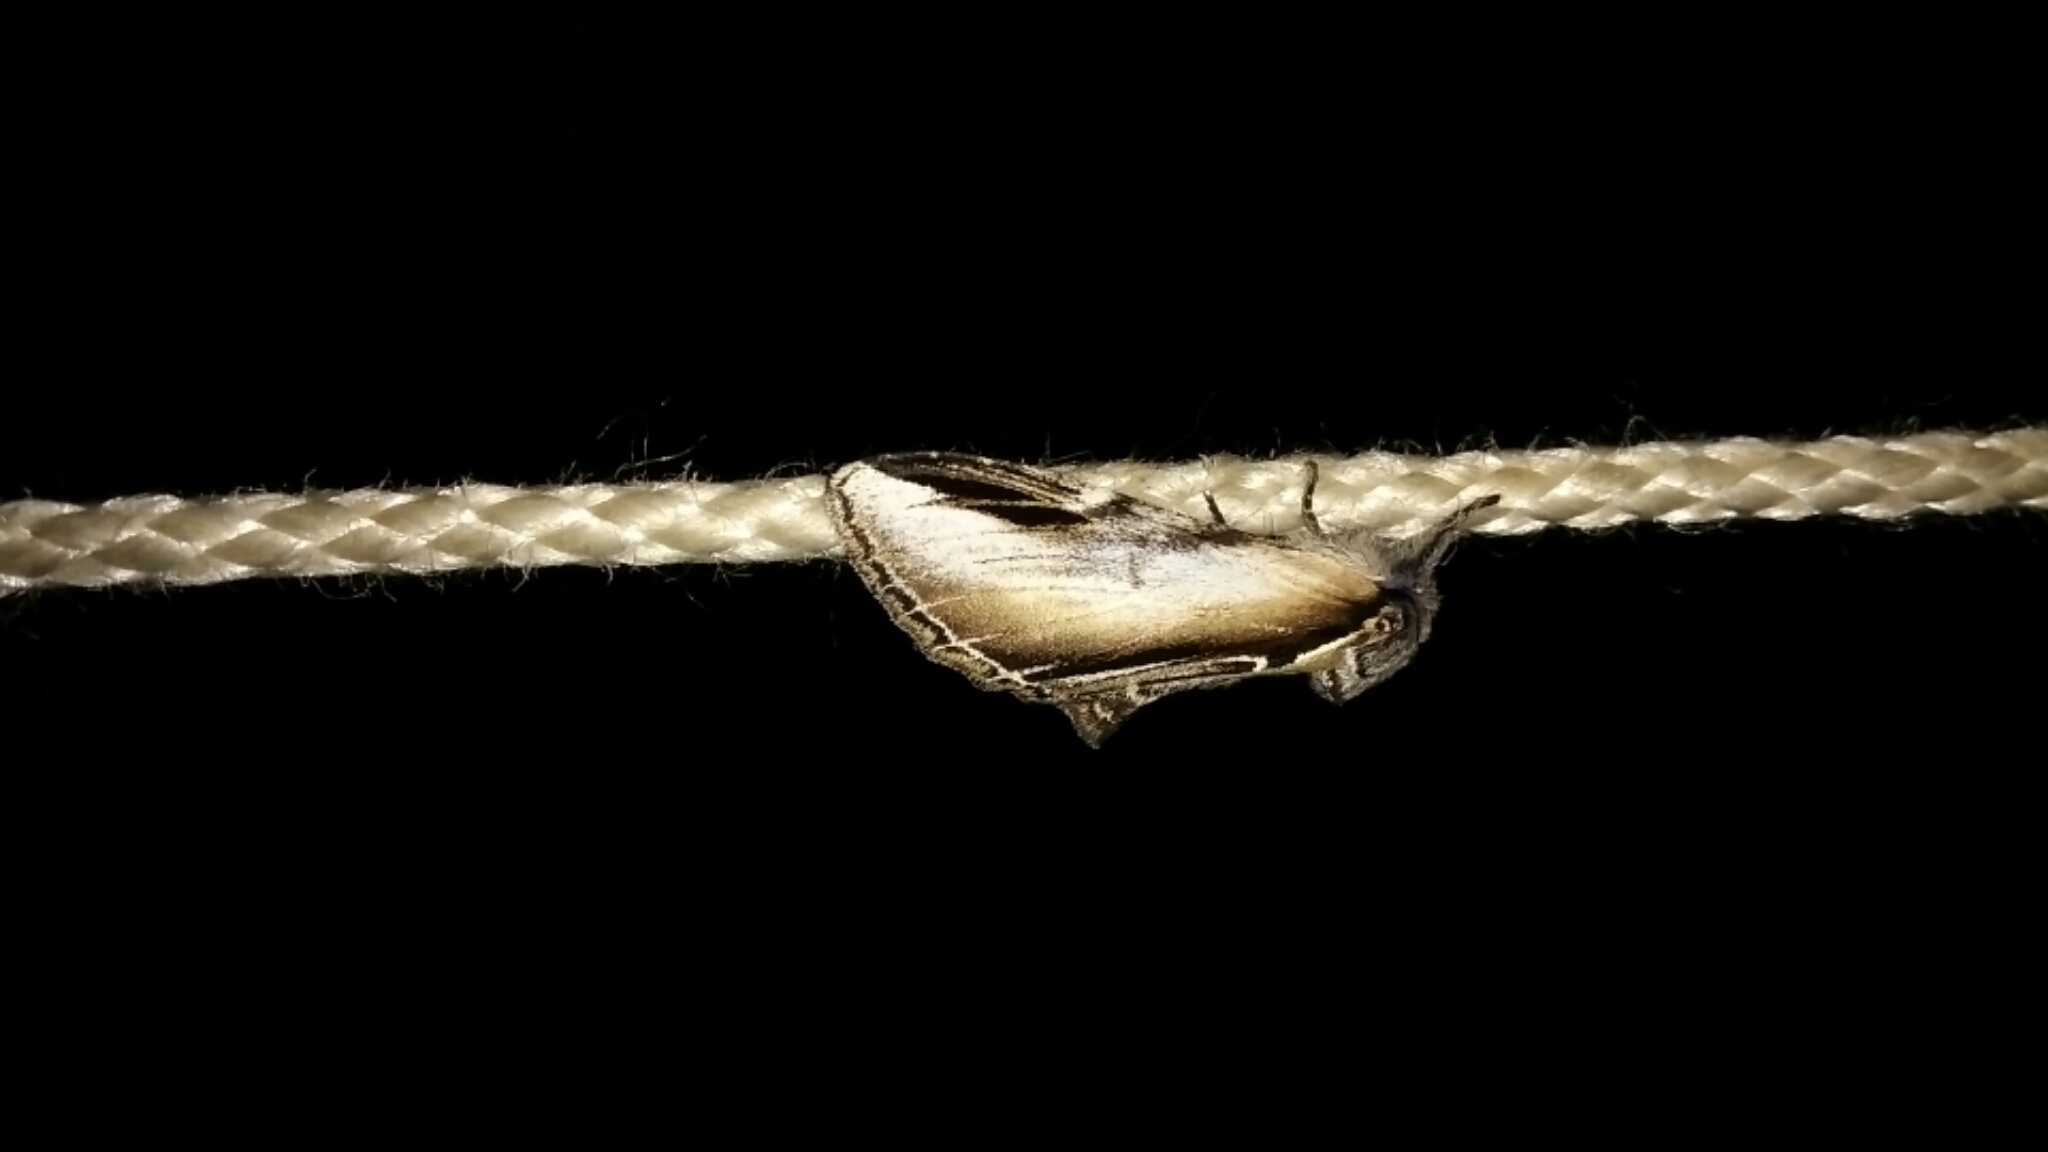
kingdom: Animalia
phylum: Arthropoda
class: Insecta
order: Lepidoptera
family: Notodontidae
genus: Pheosia
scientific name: Pheosia rimosa
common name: Black-rimmed prominent
